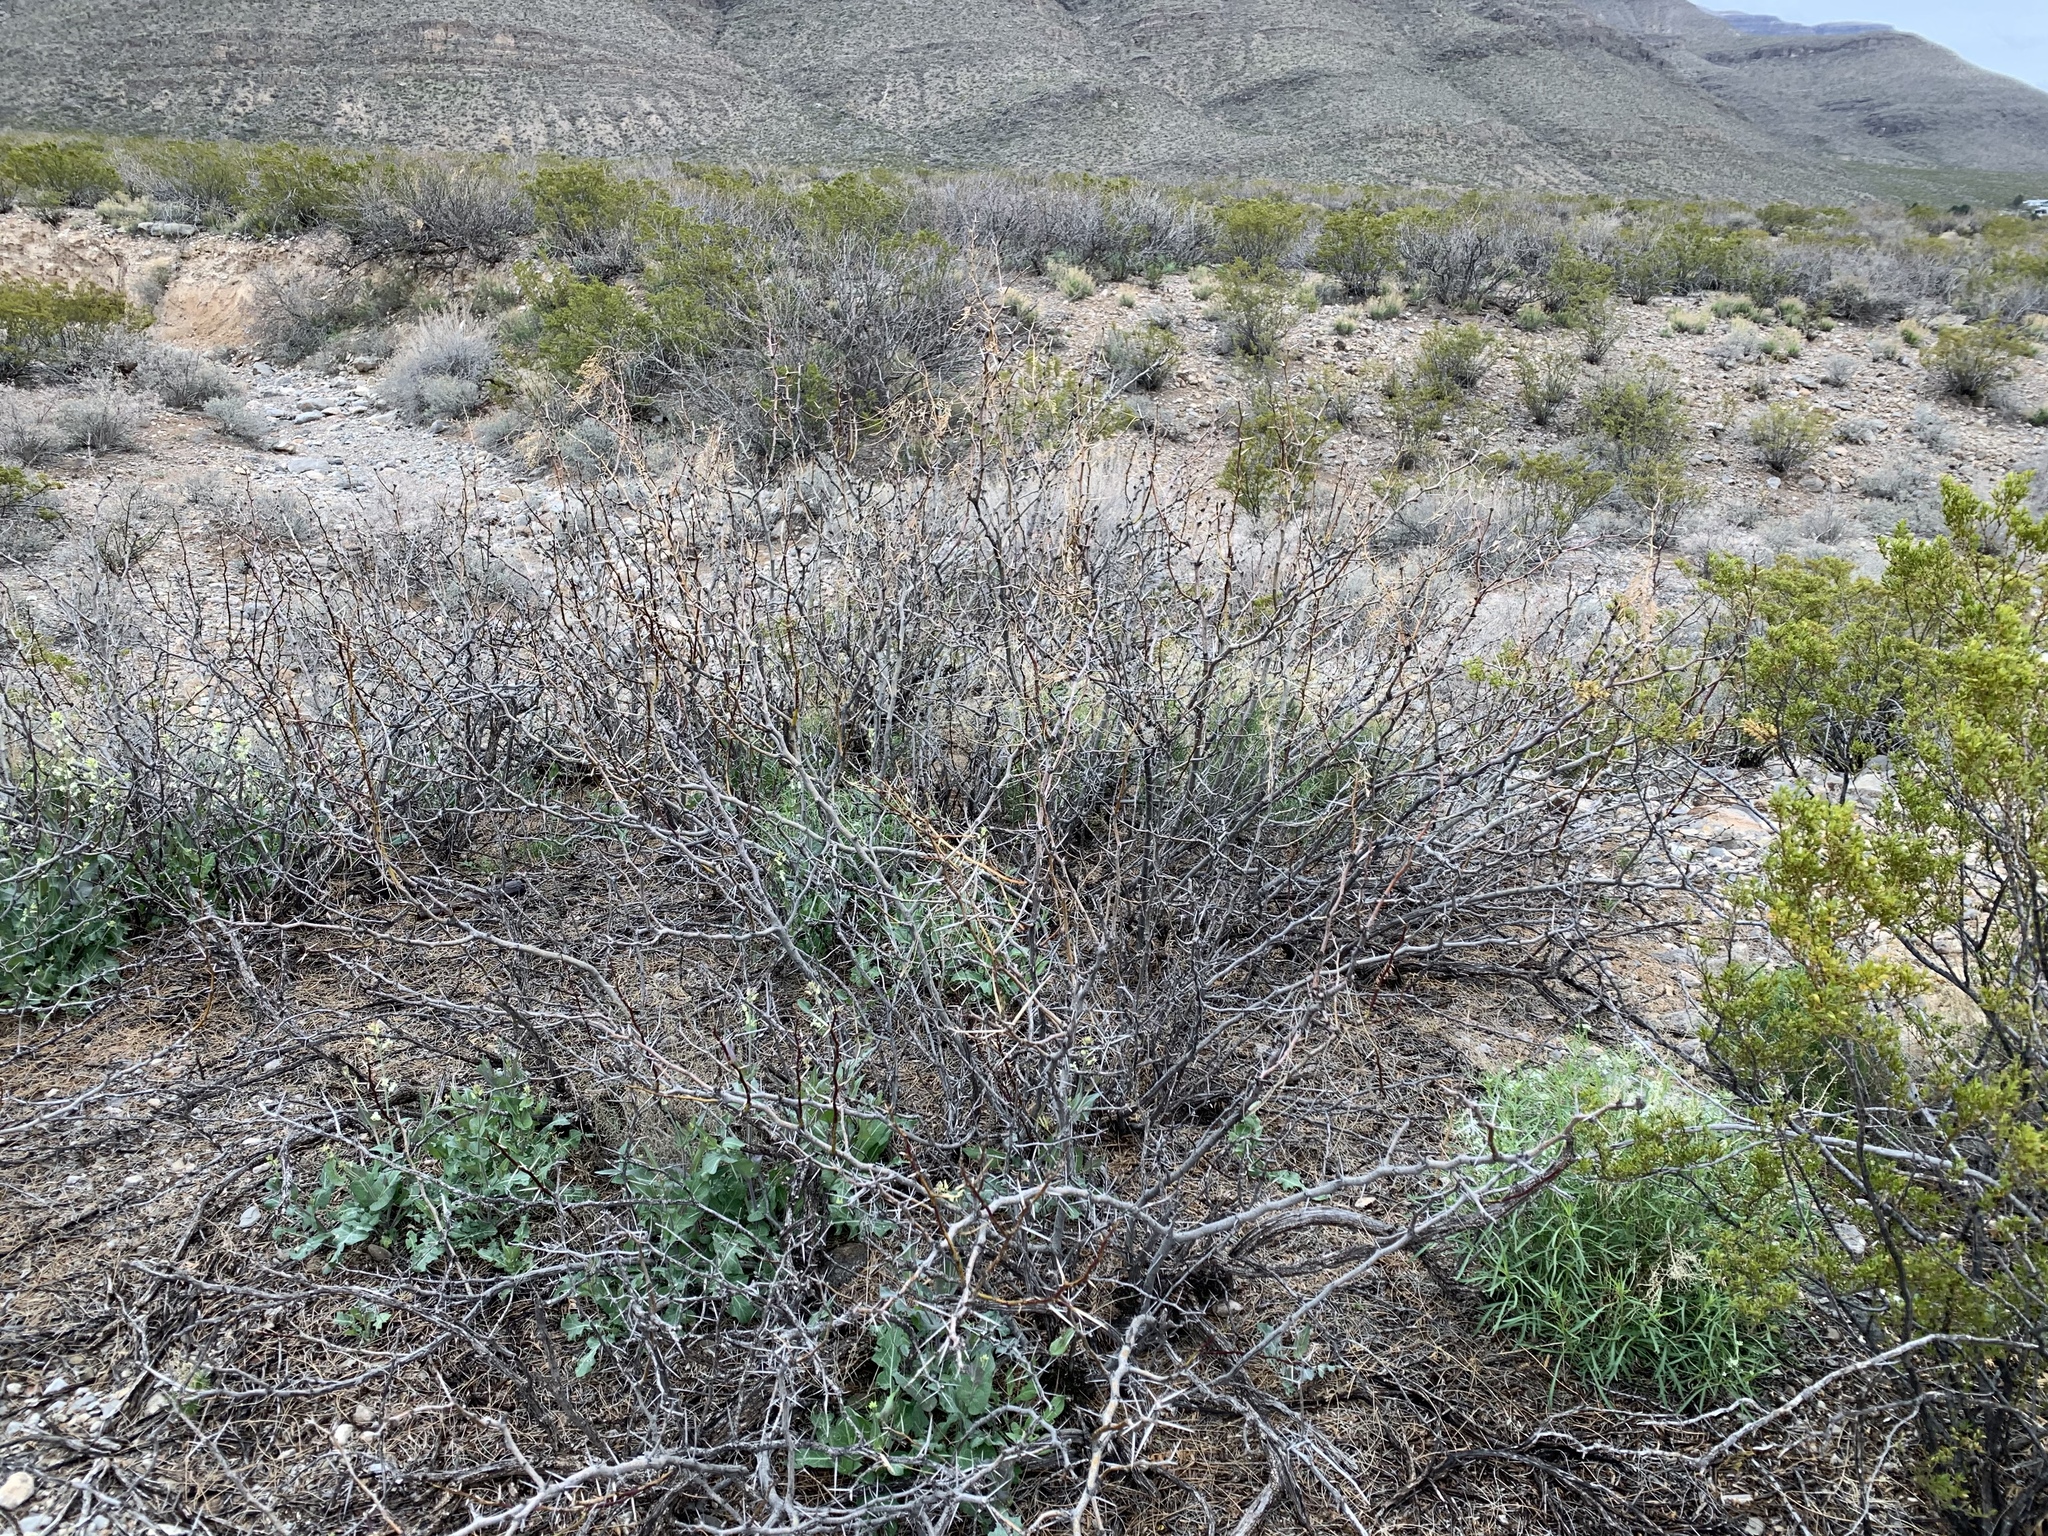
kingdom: Plantae
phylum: Tracheophyta
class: Magnoliopsida
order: Fabales
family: Fabaceae
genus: Prosopis
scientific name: Prosopis glandulosa
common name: Honey mesquite
